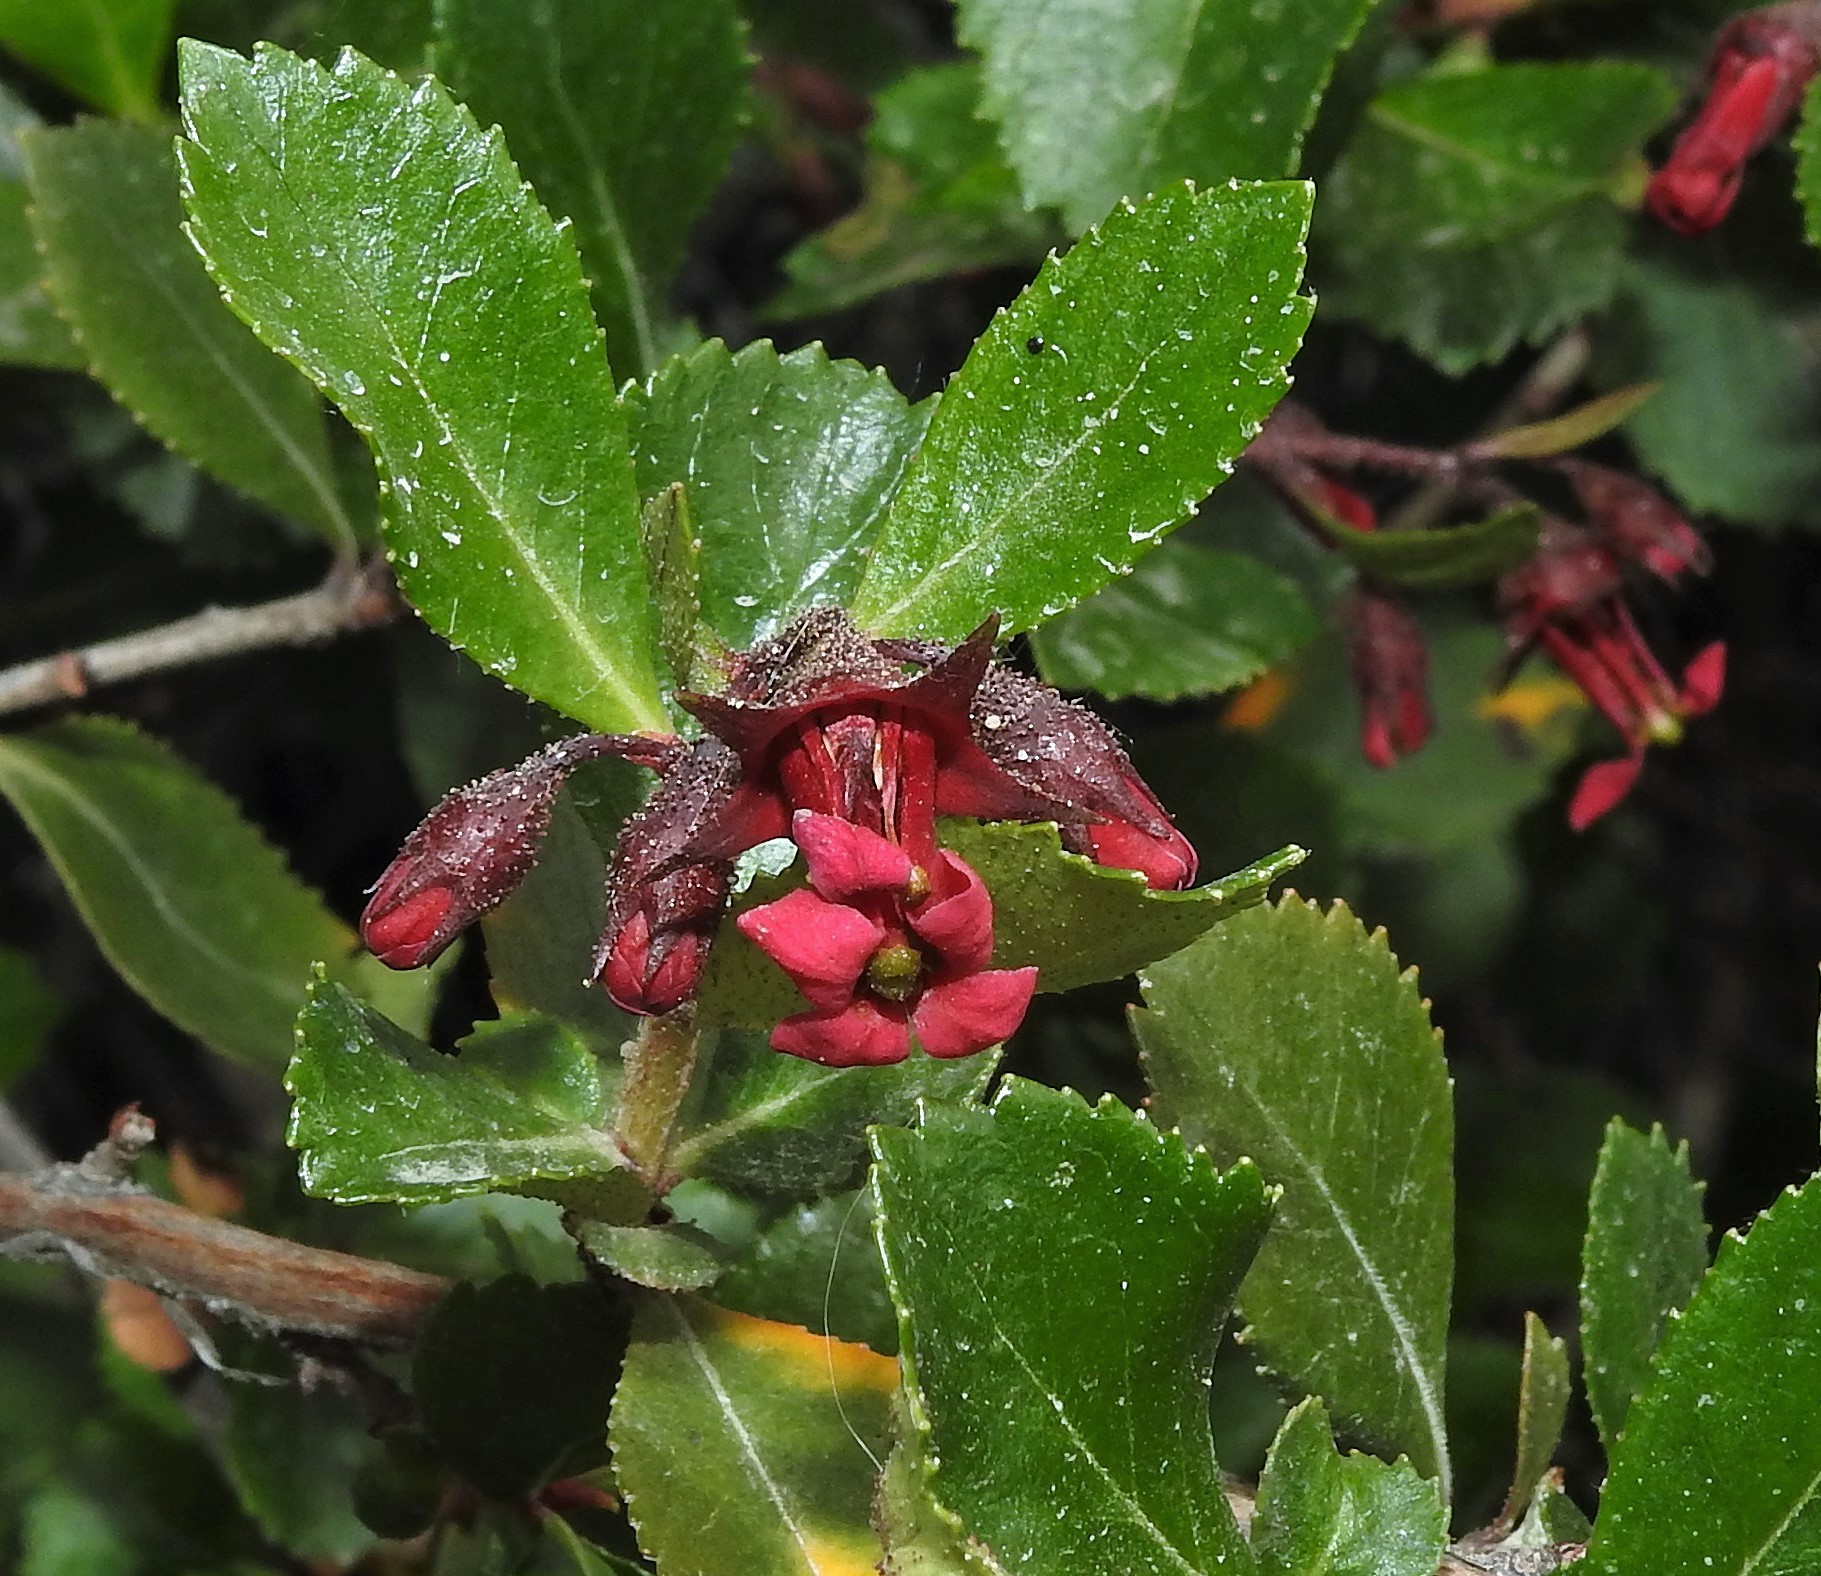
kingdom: Plantae
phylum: Tracheophyta
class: Magnoliopsida
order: Escalloniales
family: Escalloniaceae
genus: Escallonia
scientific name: Escallonia rubra
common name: Redclaws
